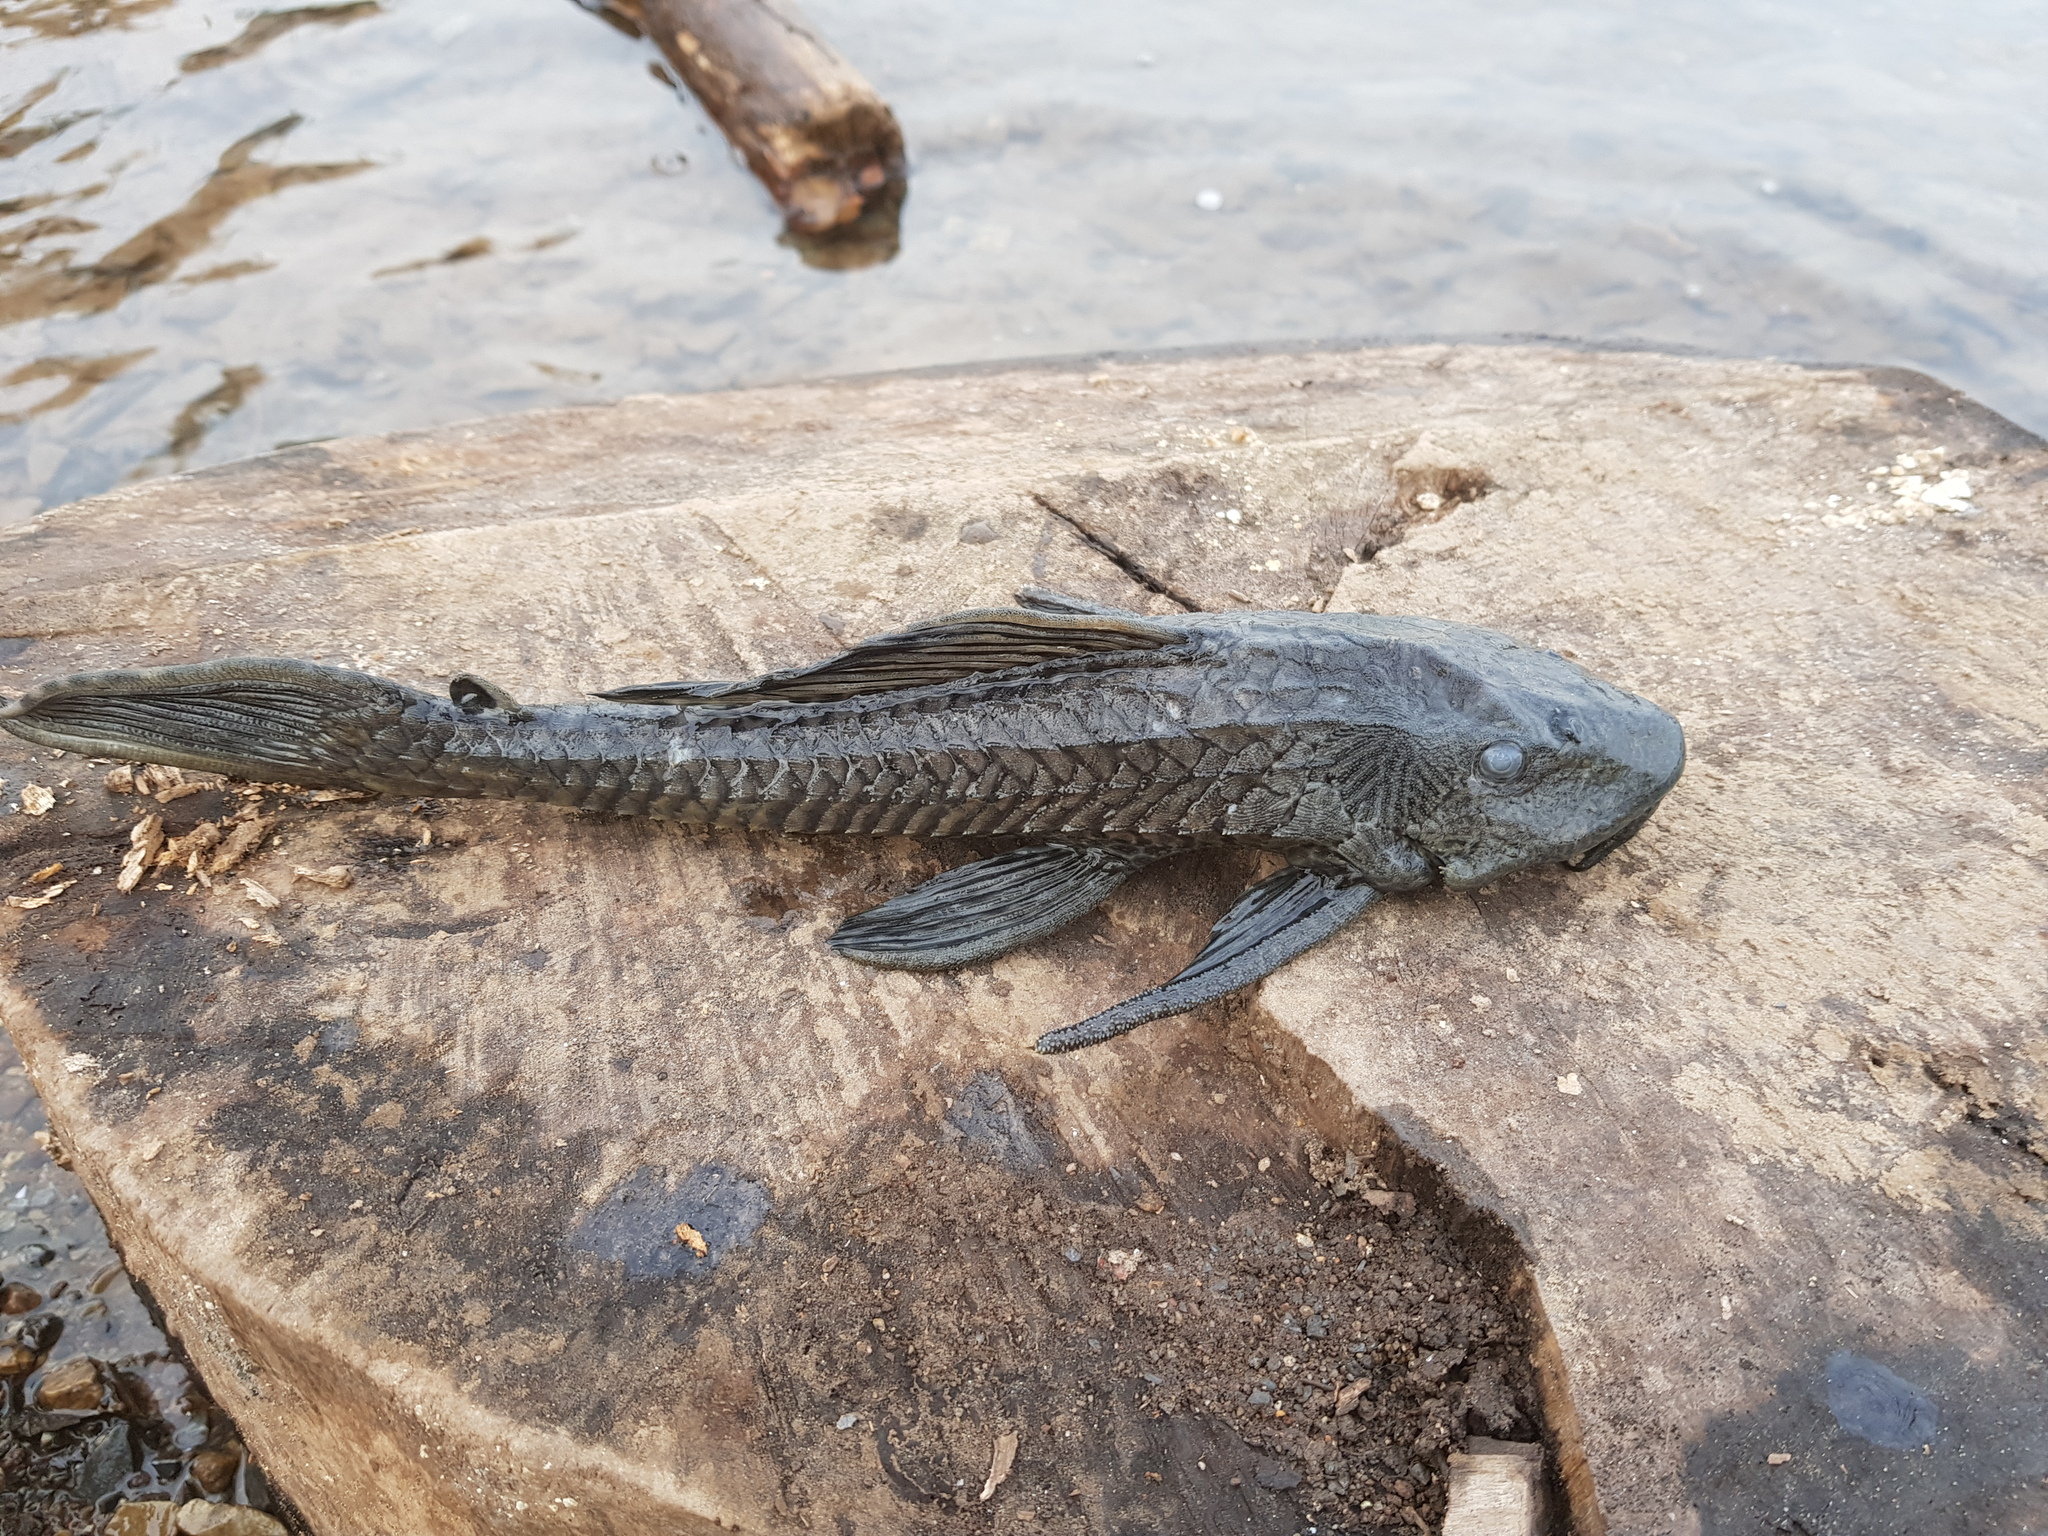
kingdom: Animalia
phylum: Chordata
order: Siluriformes
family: Loricariidae
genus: Pterygoplichthys
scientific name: Pterygoplichthys
